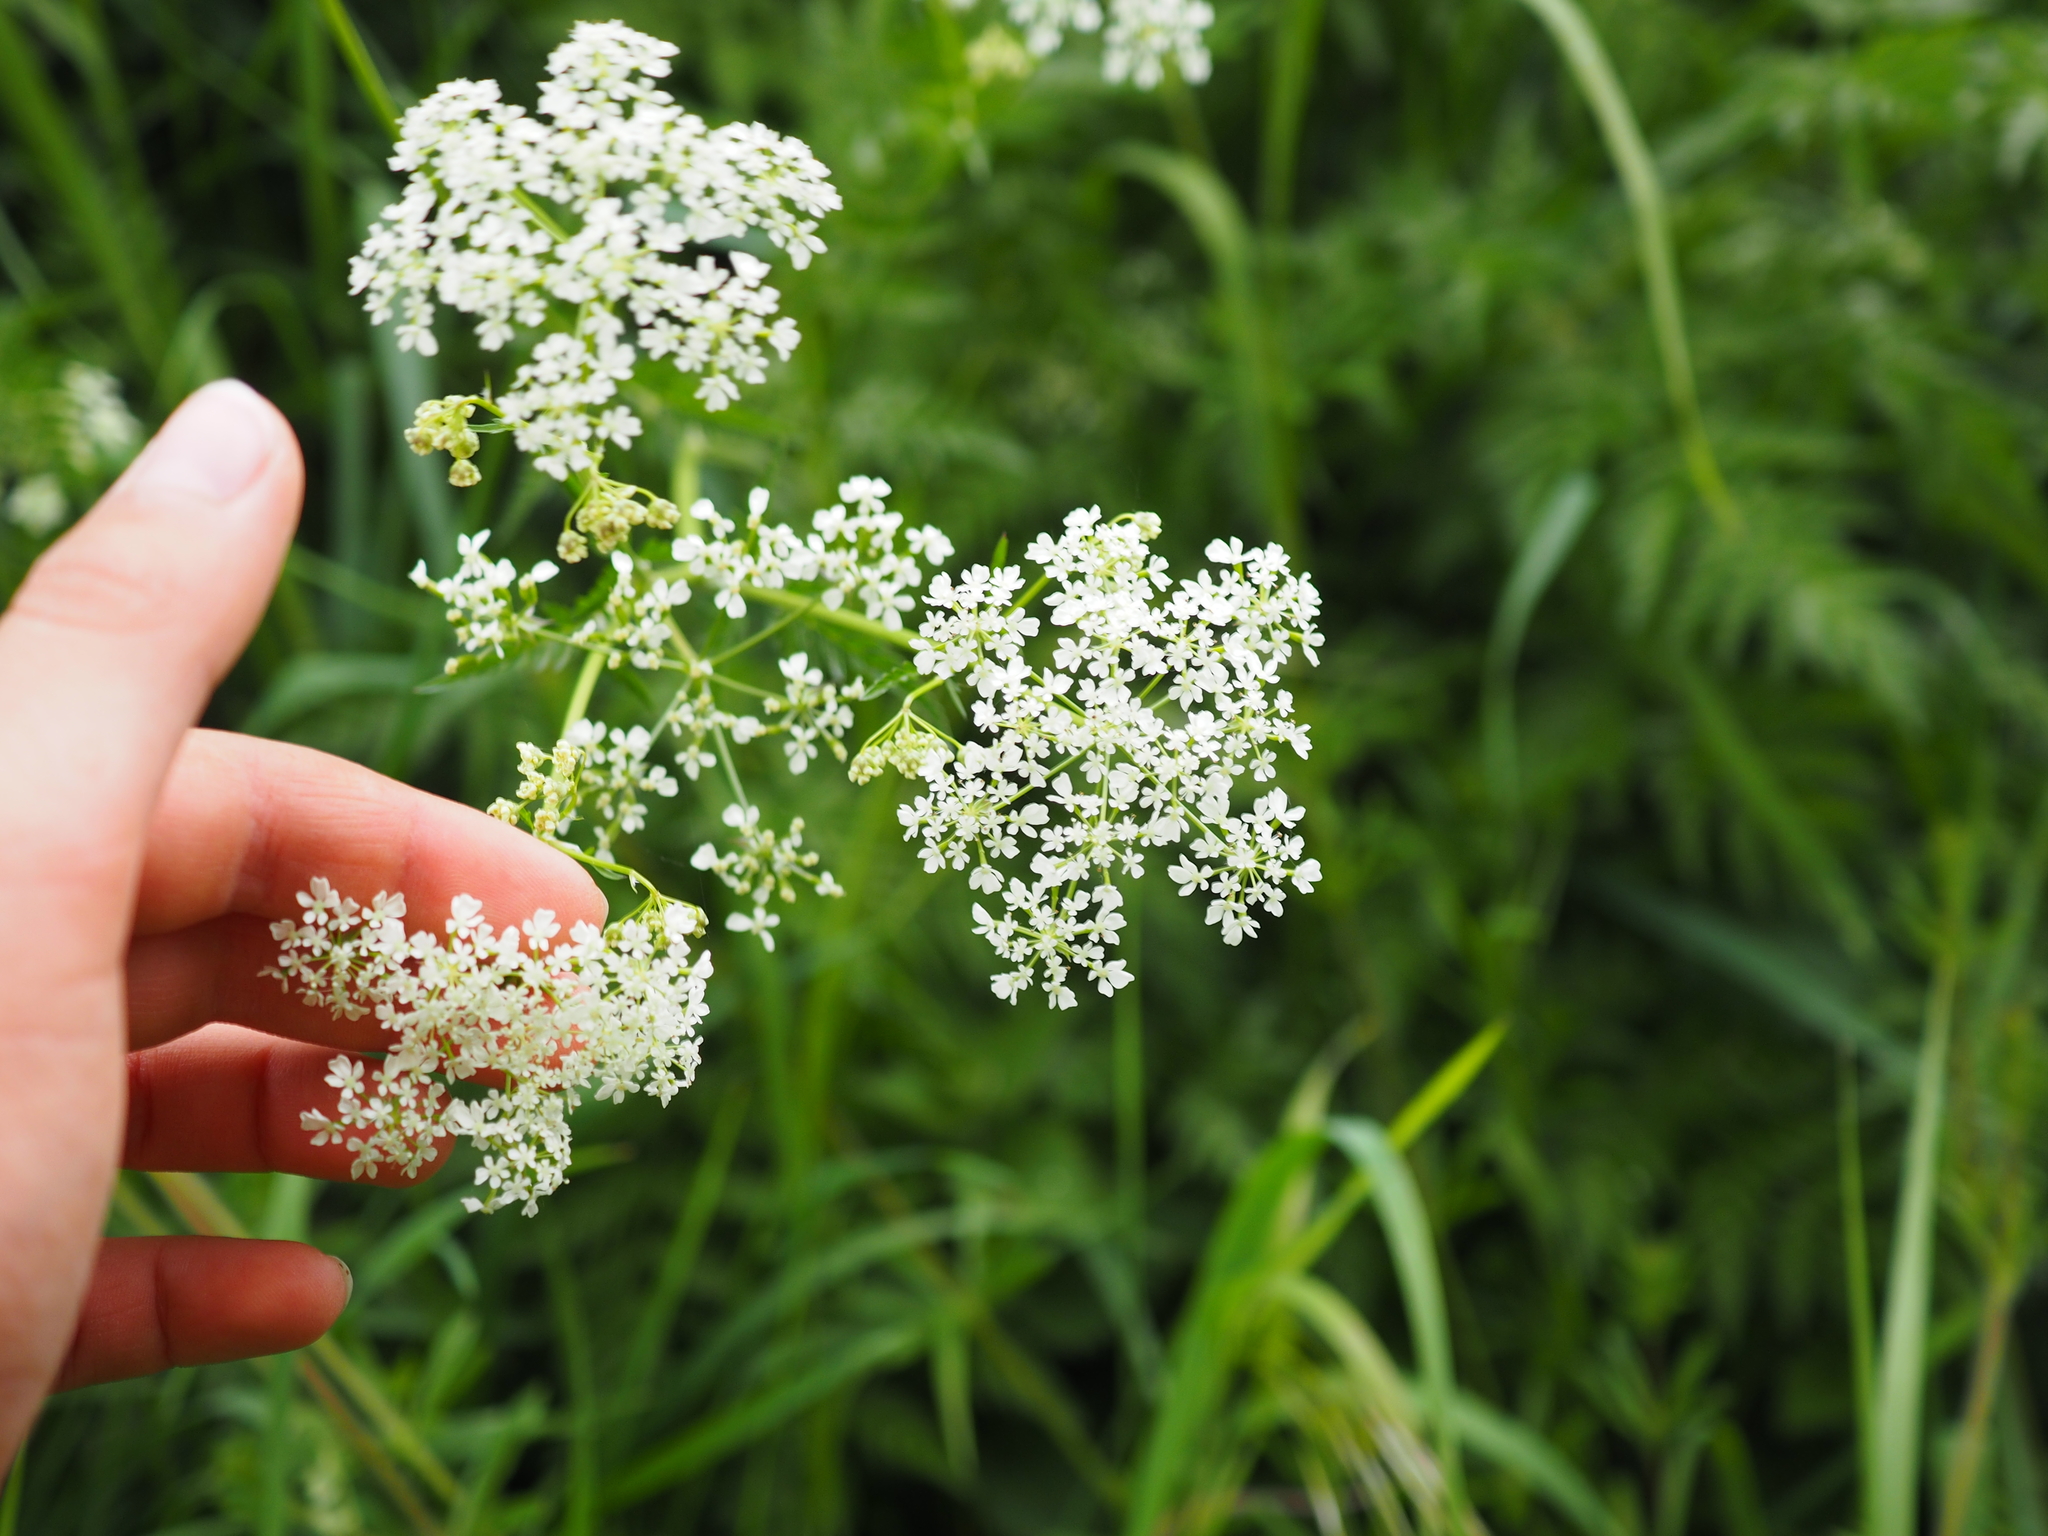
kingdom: Plantae
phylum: Tracheophyta
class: Magnoliopsida
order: Apiales
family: Apiaceae
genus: Anthriscus
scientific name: Anthriscus sylvestris
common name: Cow parsley
